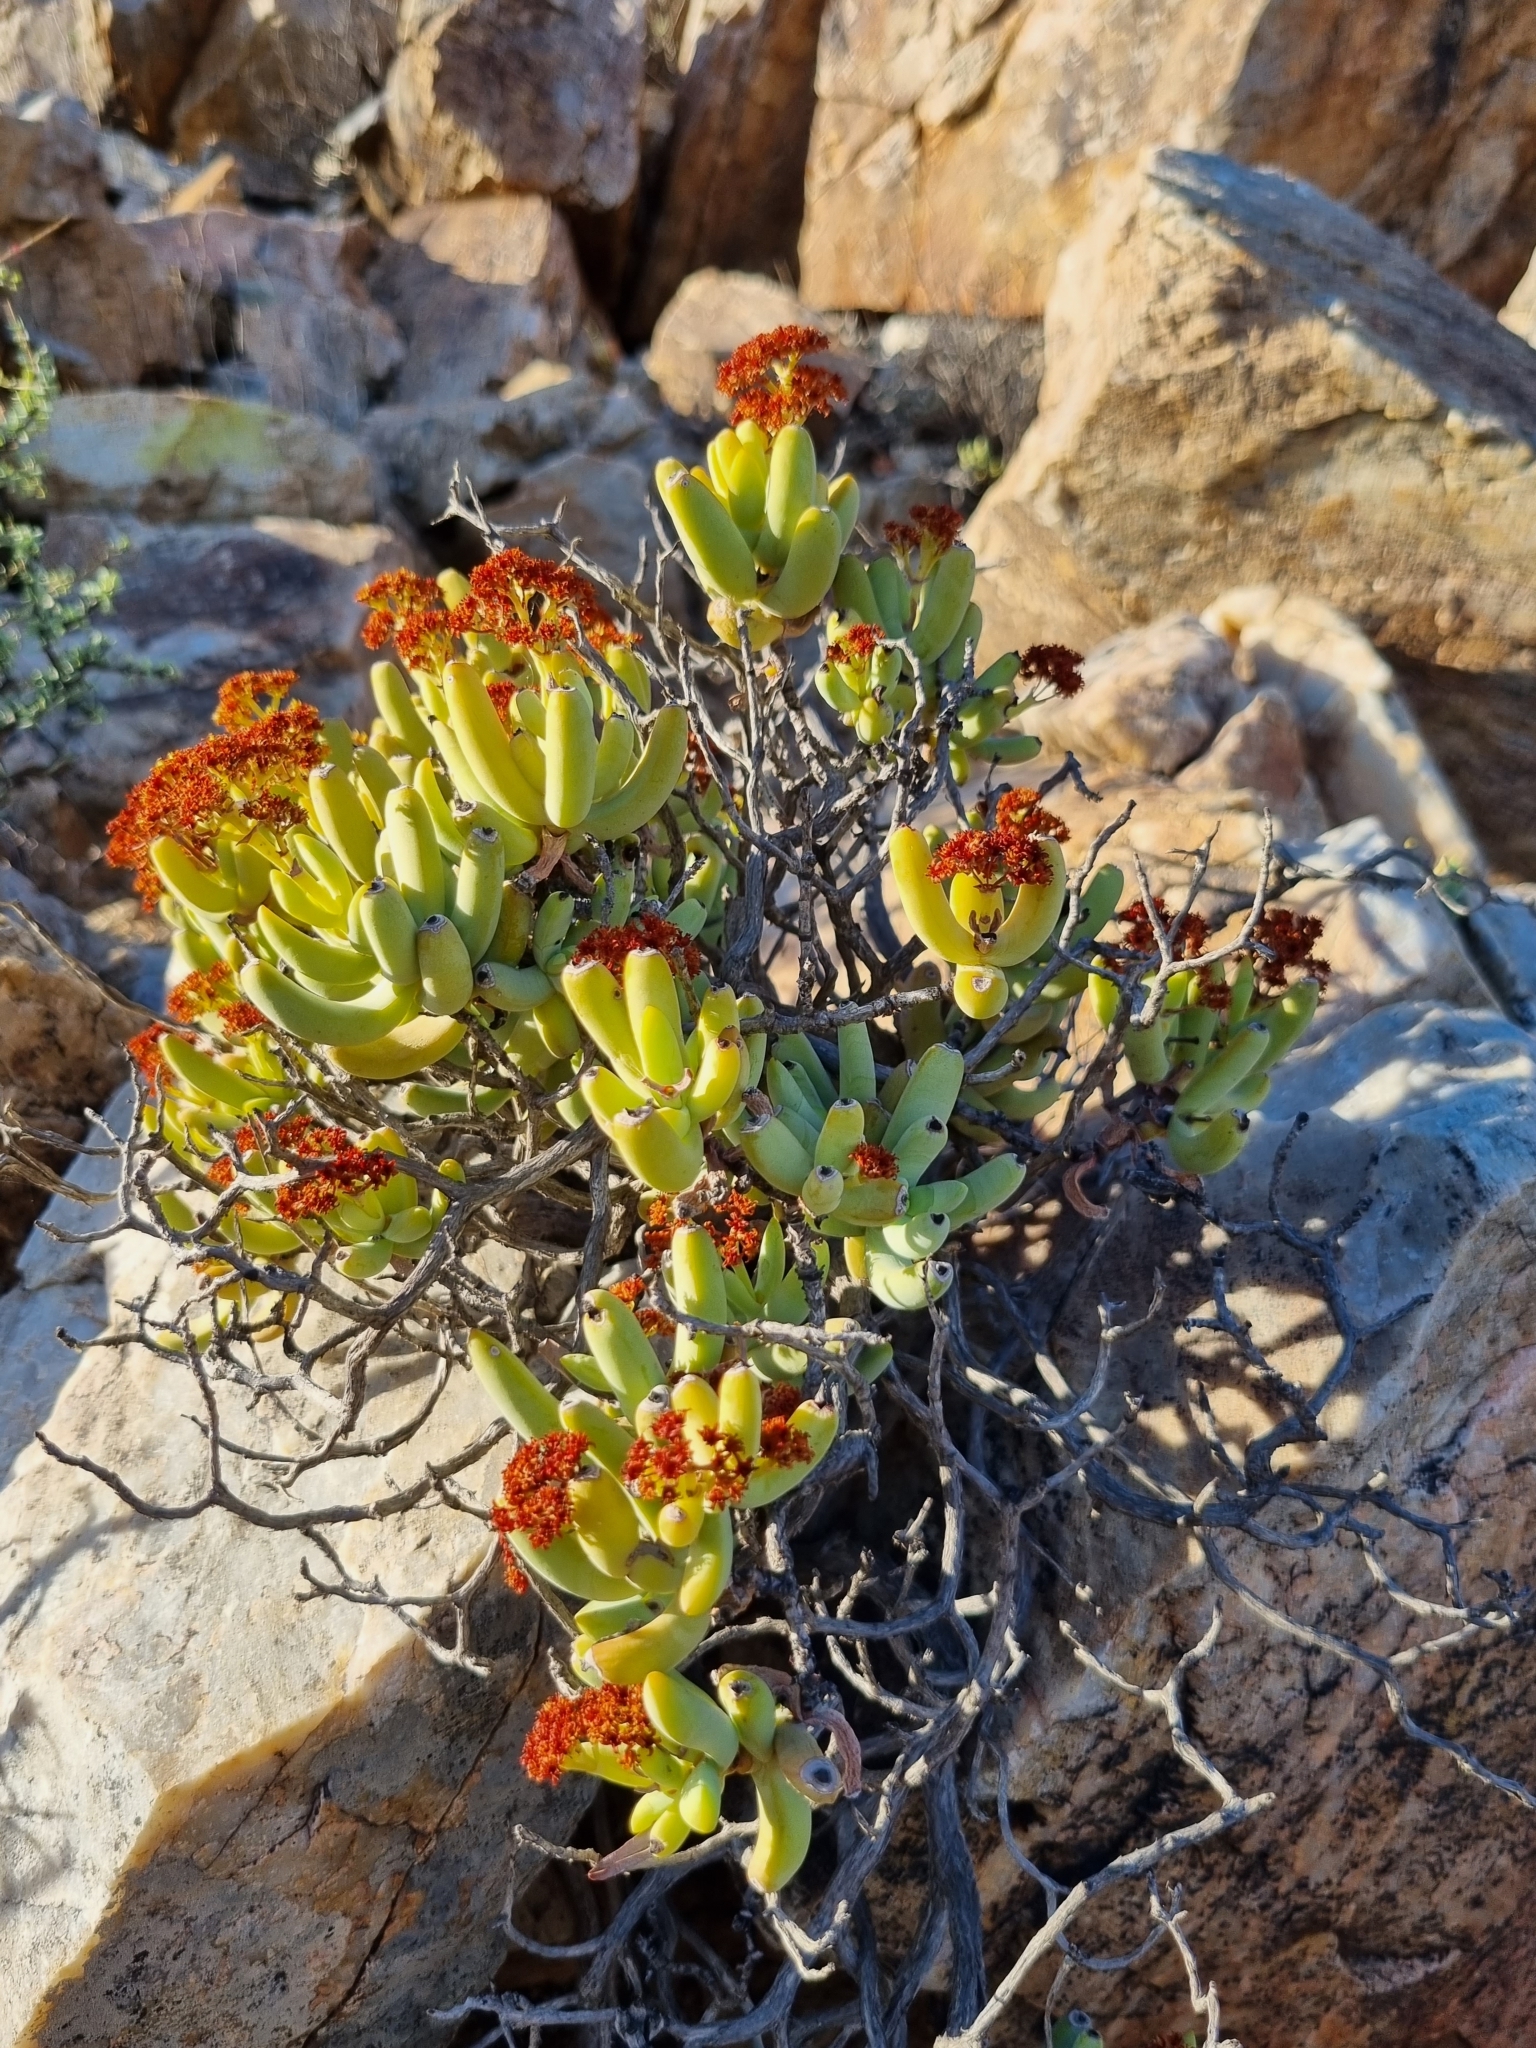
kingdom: Plantae
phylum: Tracheophyta
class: Magnoliopsida
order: Saxifragales
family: Crassulaceae
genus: Crassula
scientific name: Crassula brevifolia
